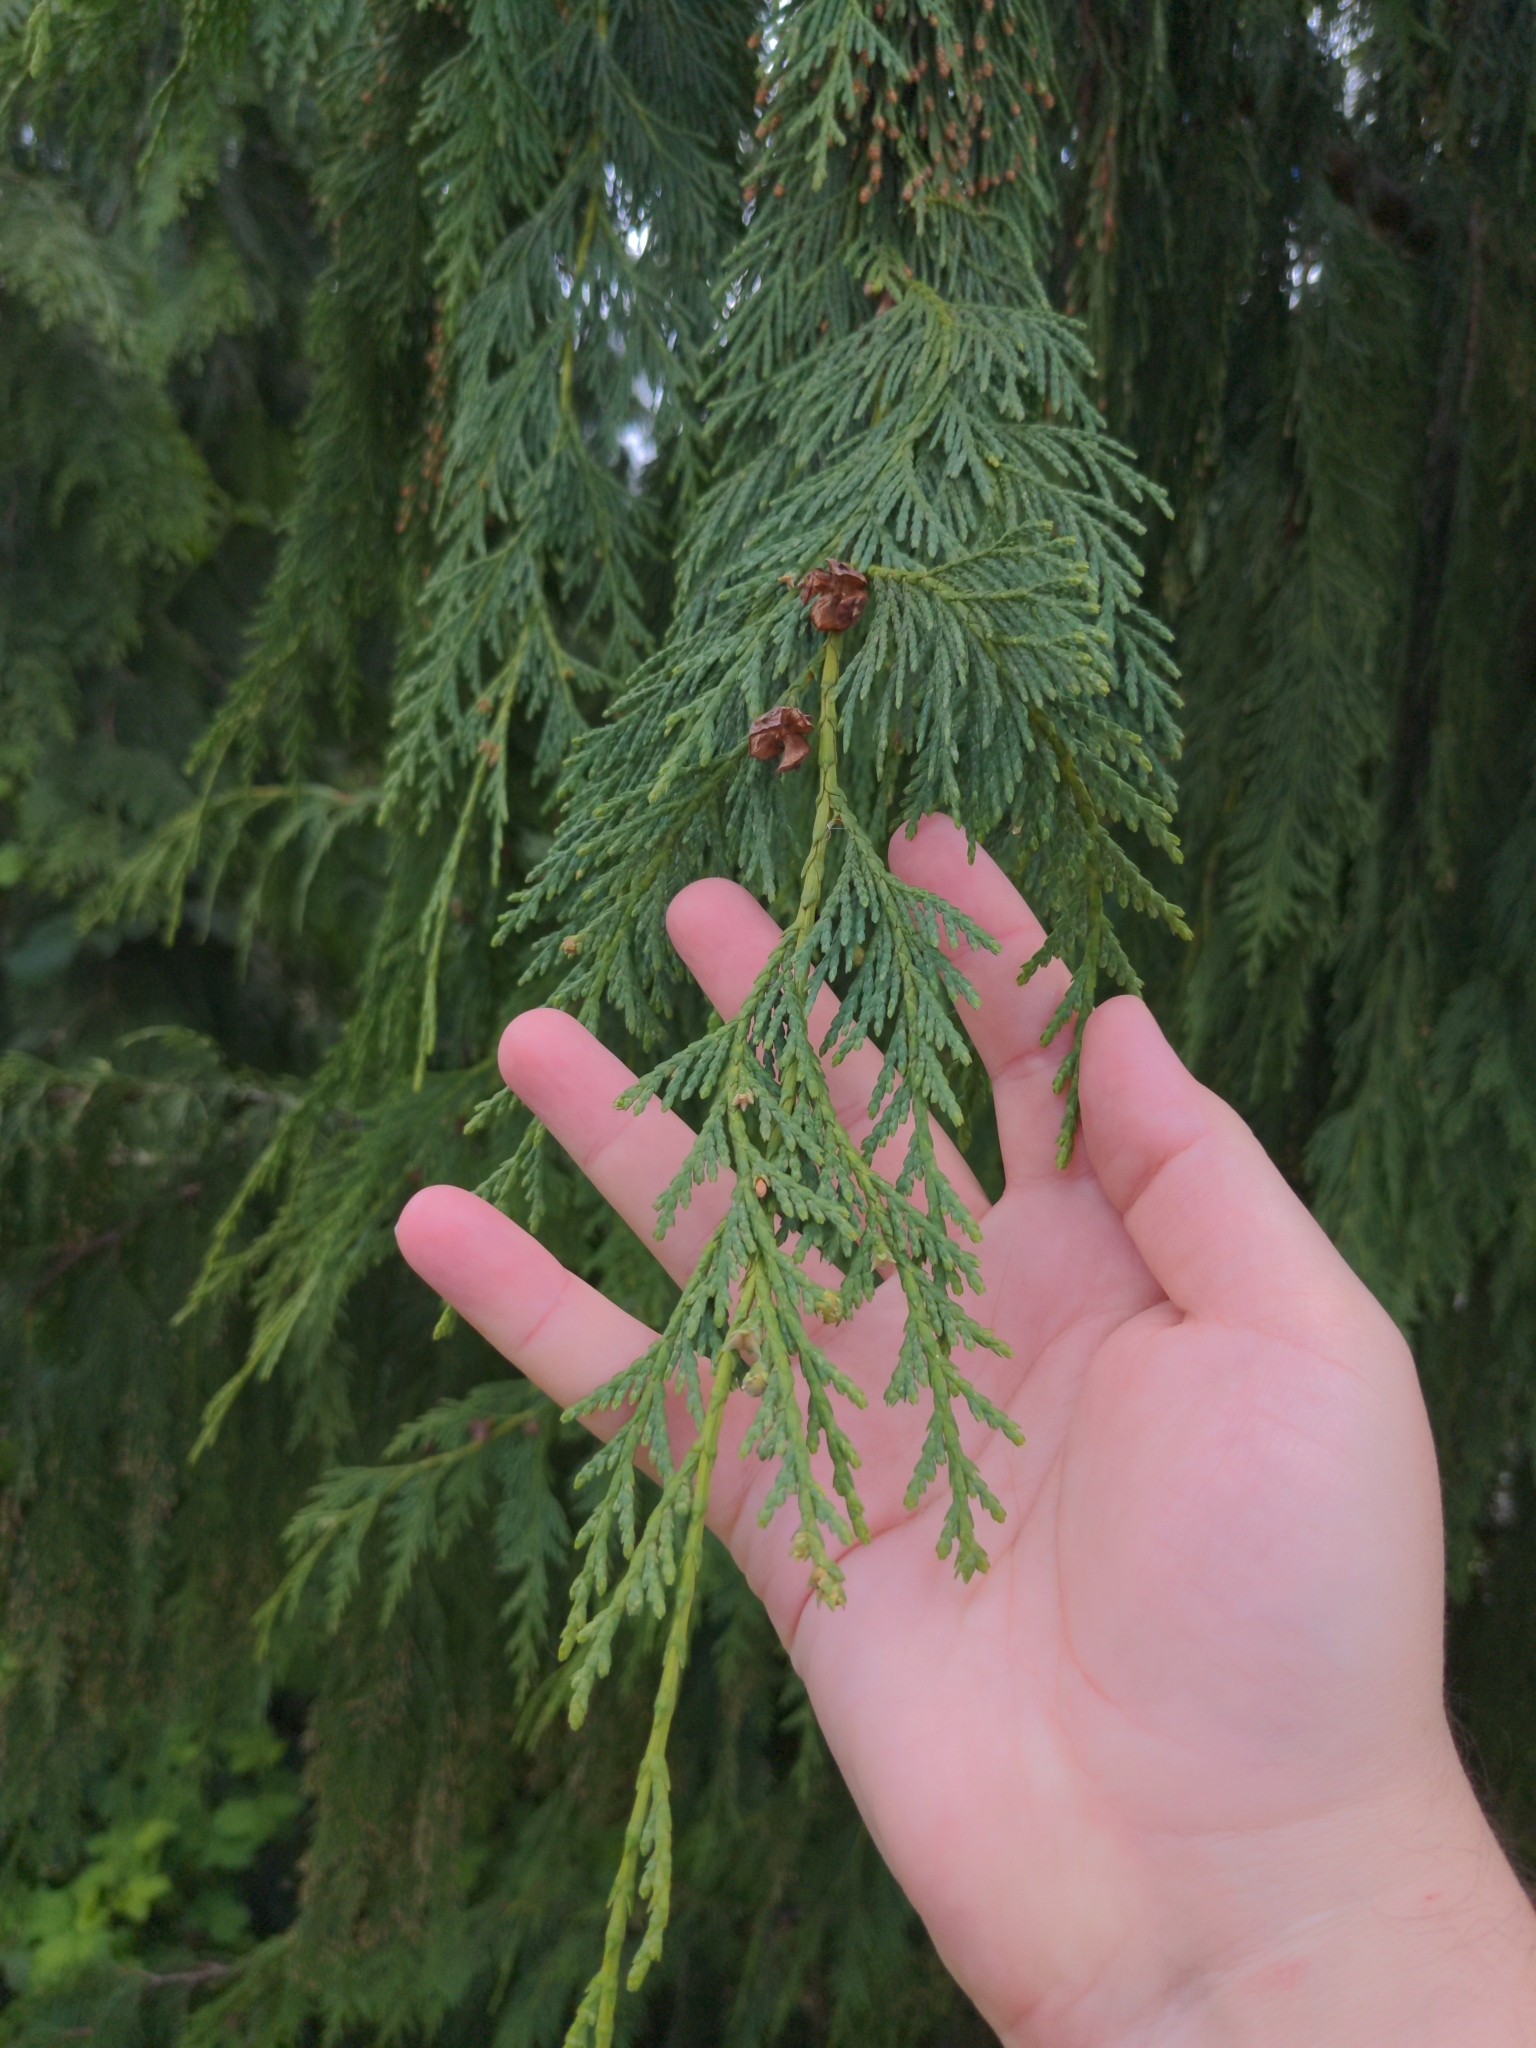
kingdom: Plantae
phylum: Tracheophyta
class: Pinopsida
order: Pinales
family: Cupressaceae
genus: Xanthocyparis
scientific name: Xanthocyparis nootkatensis
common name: Nootka cypress
